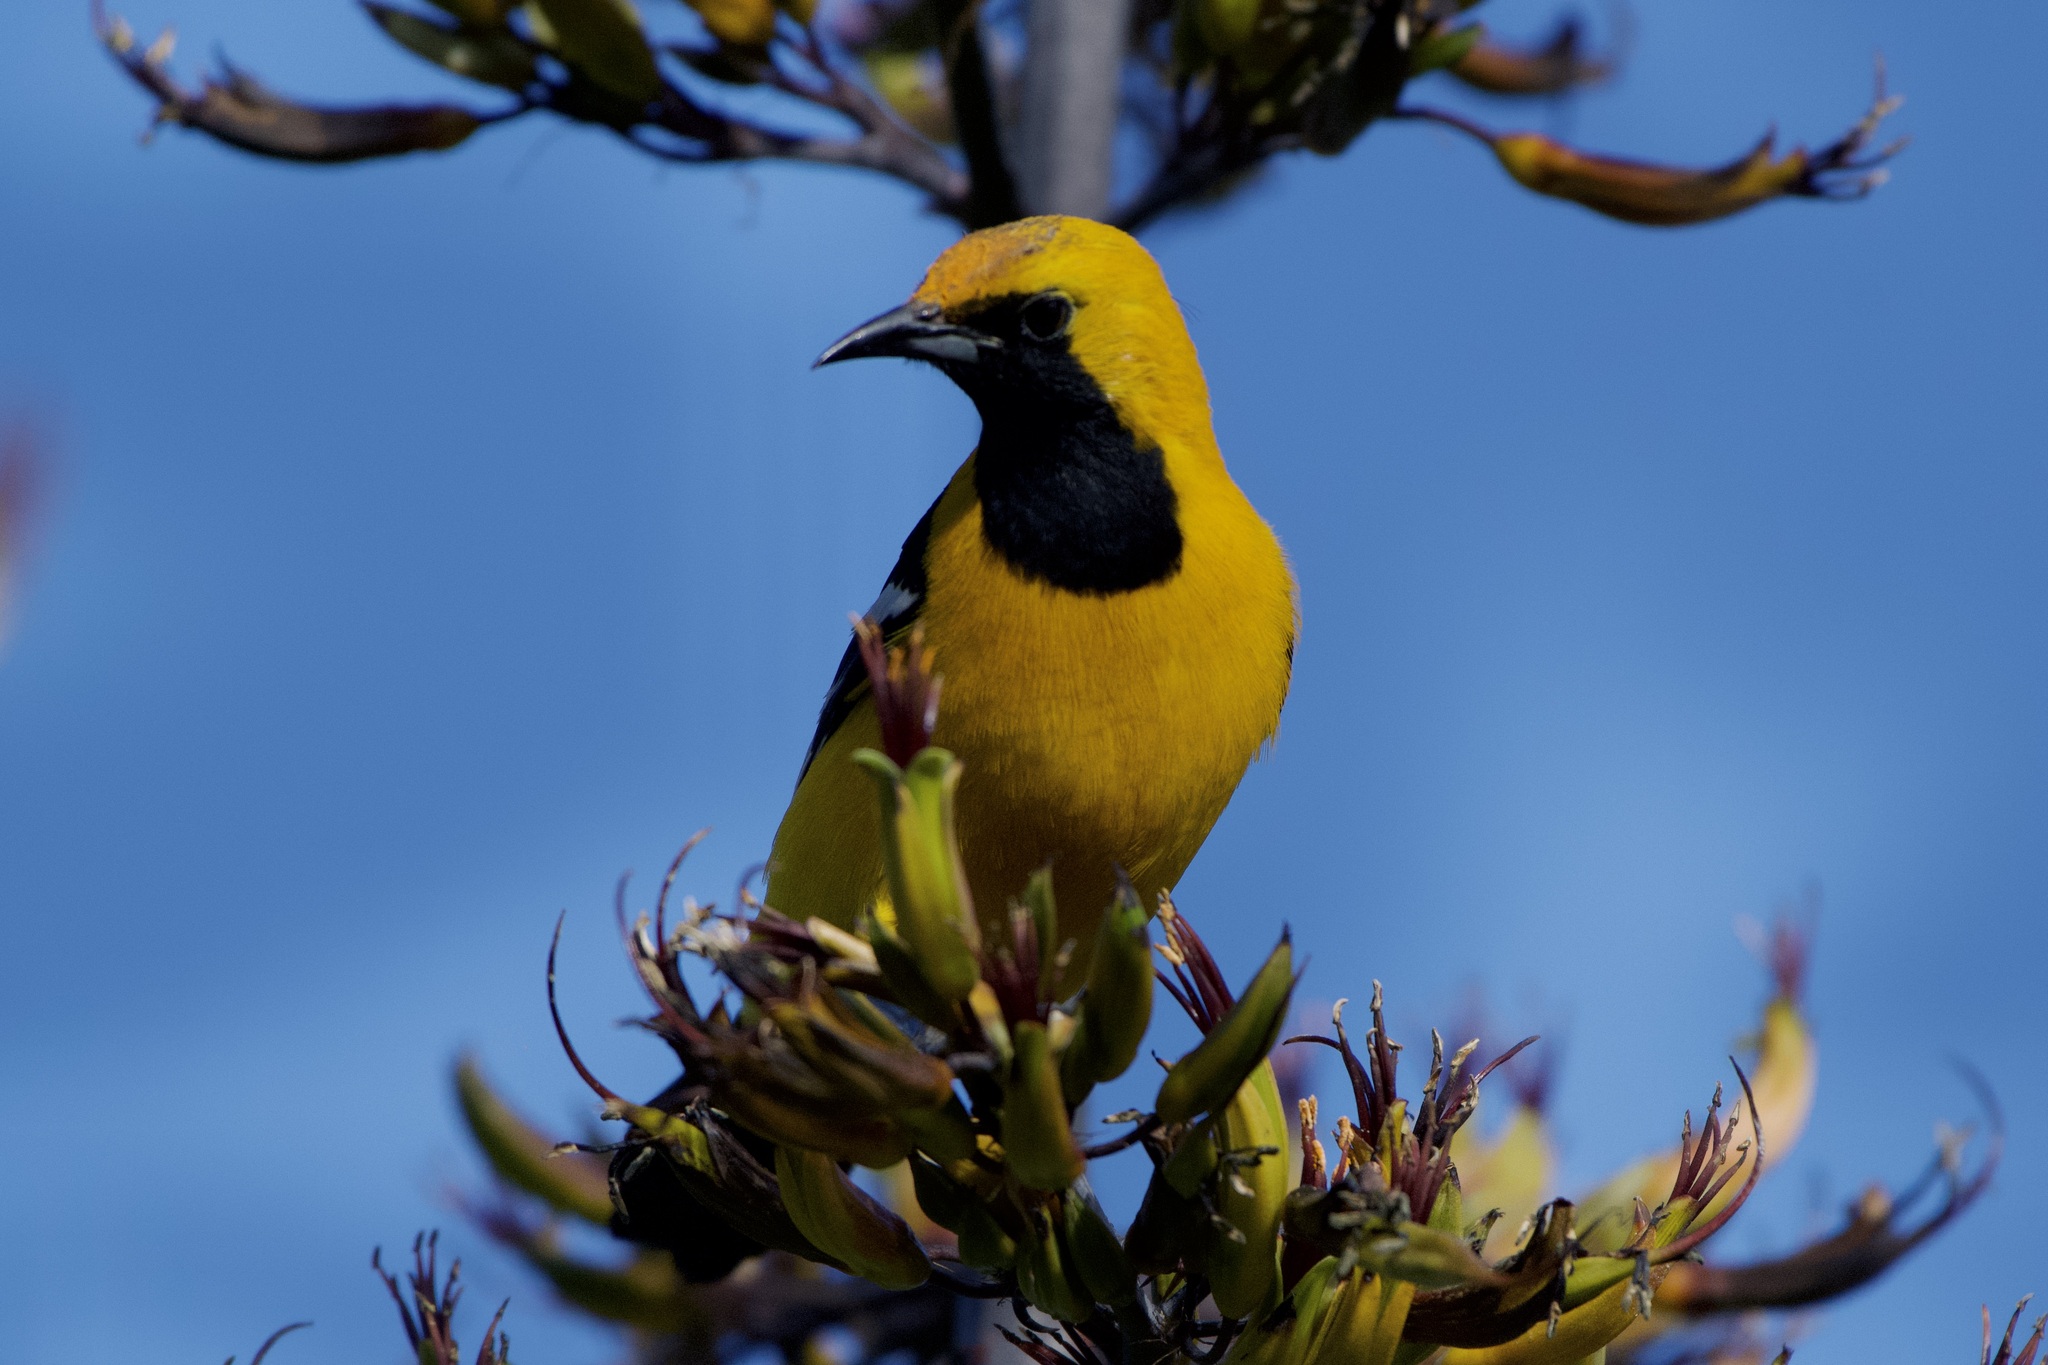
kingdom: Animalia
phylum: Chordata
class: Aves
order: Passeriformes
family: Icteridae
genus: Icterus
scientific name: Icterus cucullatus
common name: Hooded oriole
